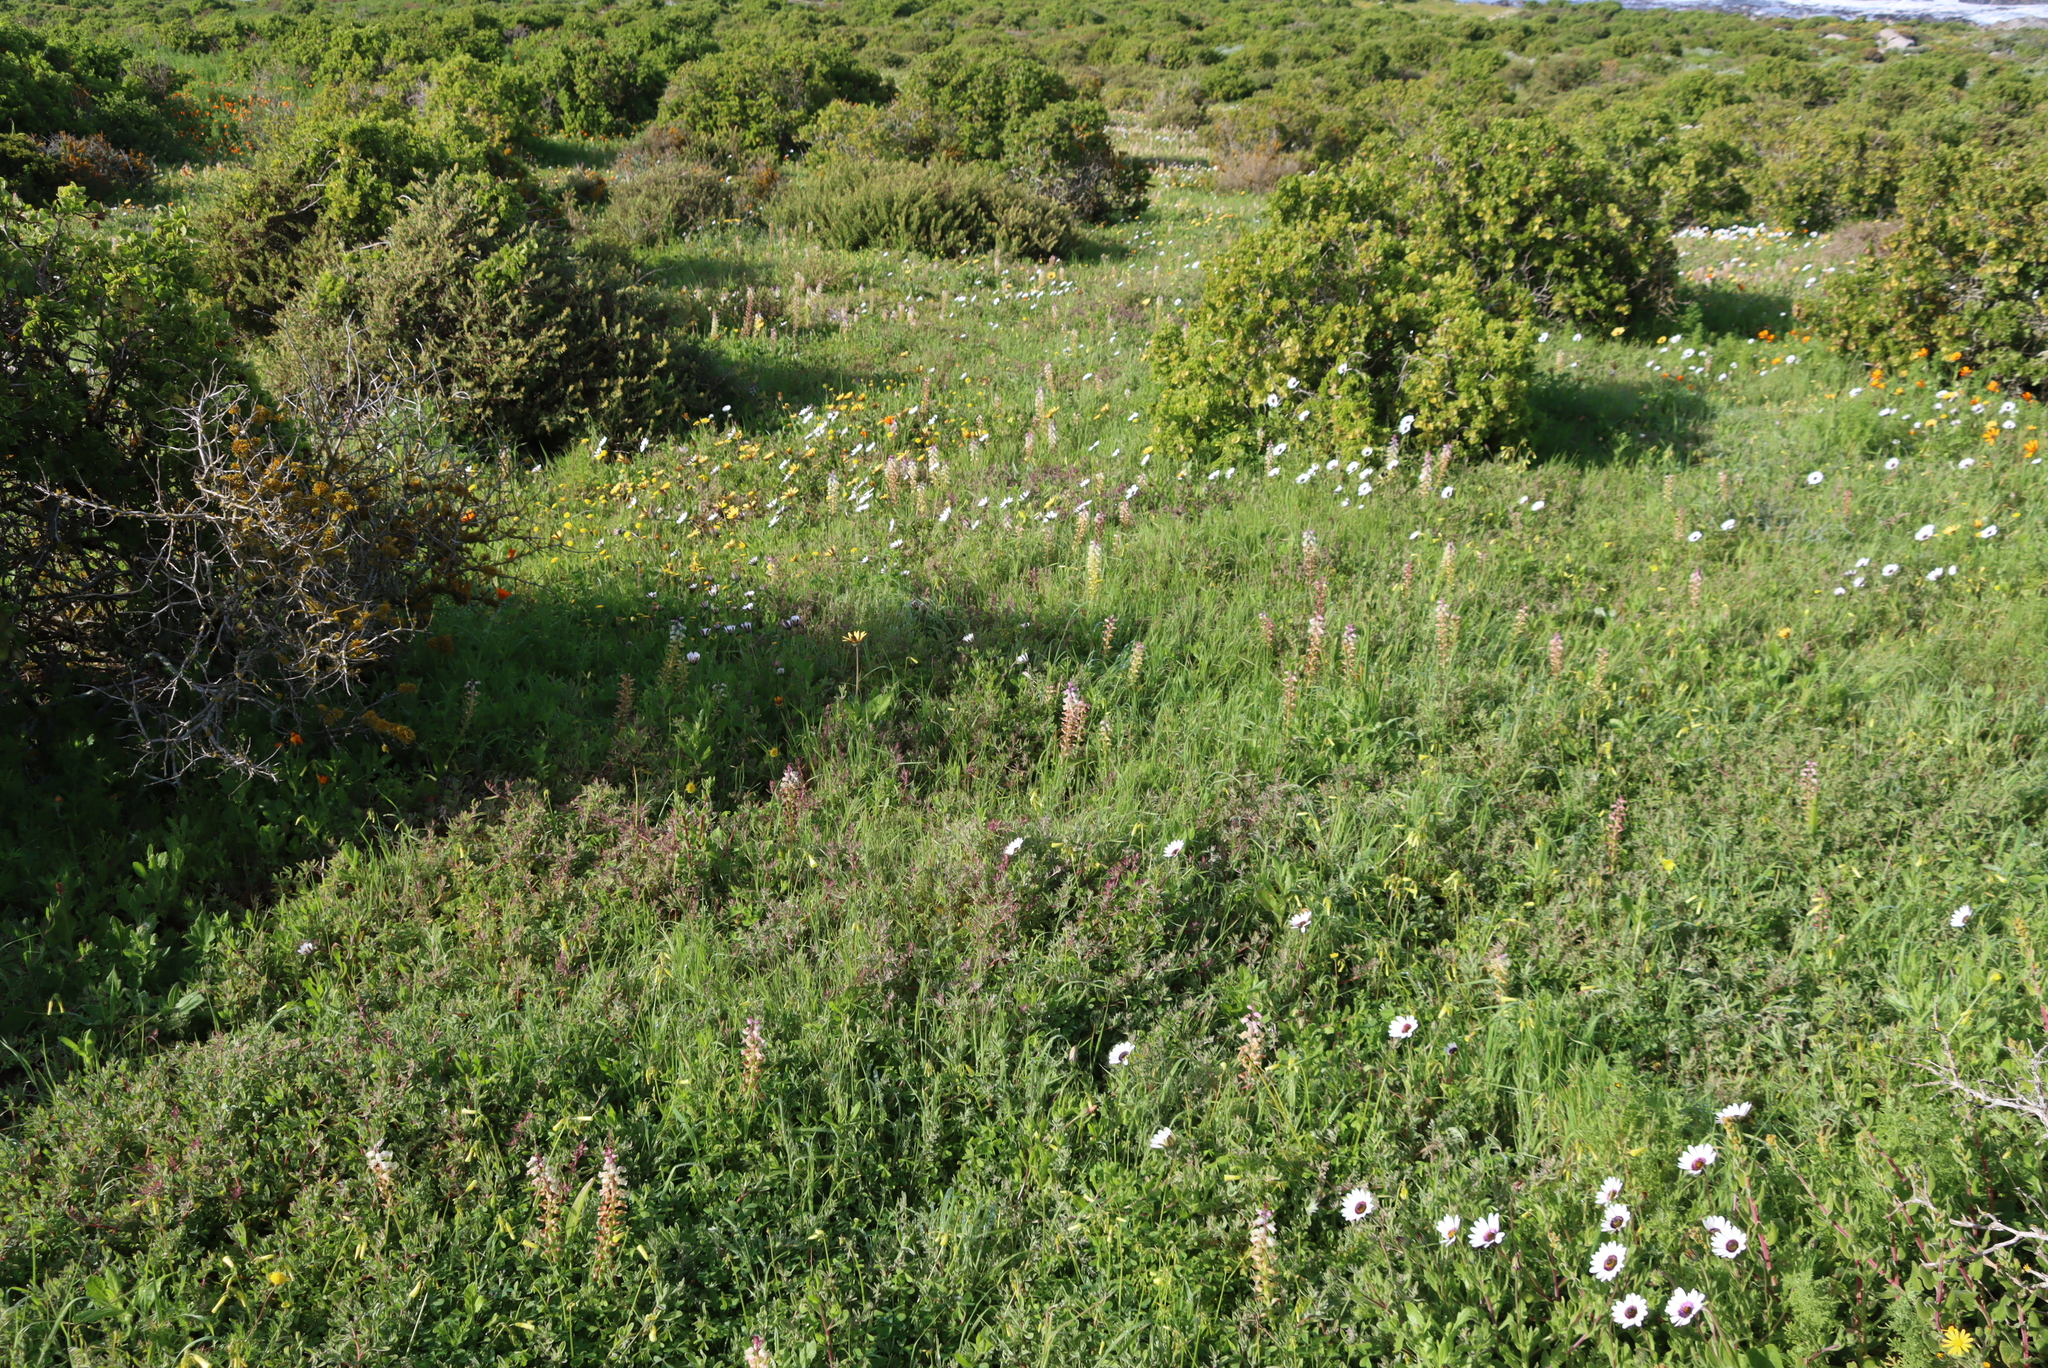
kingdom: Plantae
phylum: Tracheophyta
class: Liliopsida
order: Asparagales
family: Asparagaceae
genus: Lachenalia
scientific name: Lachenalia pallida
